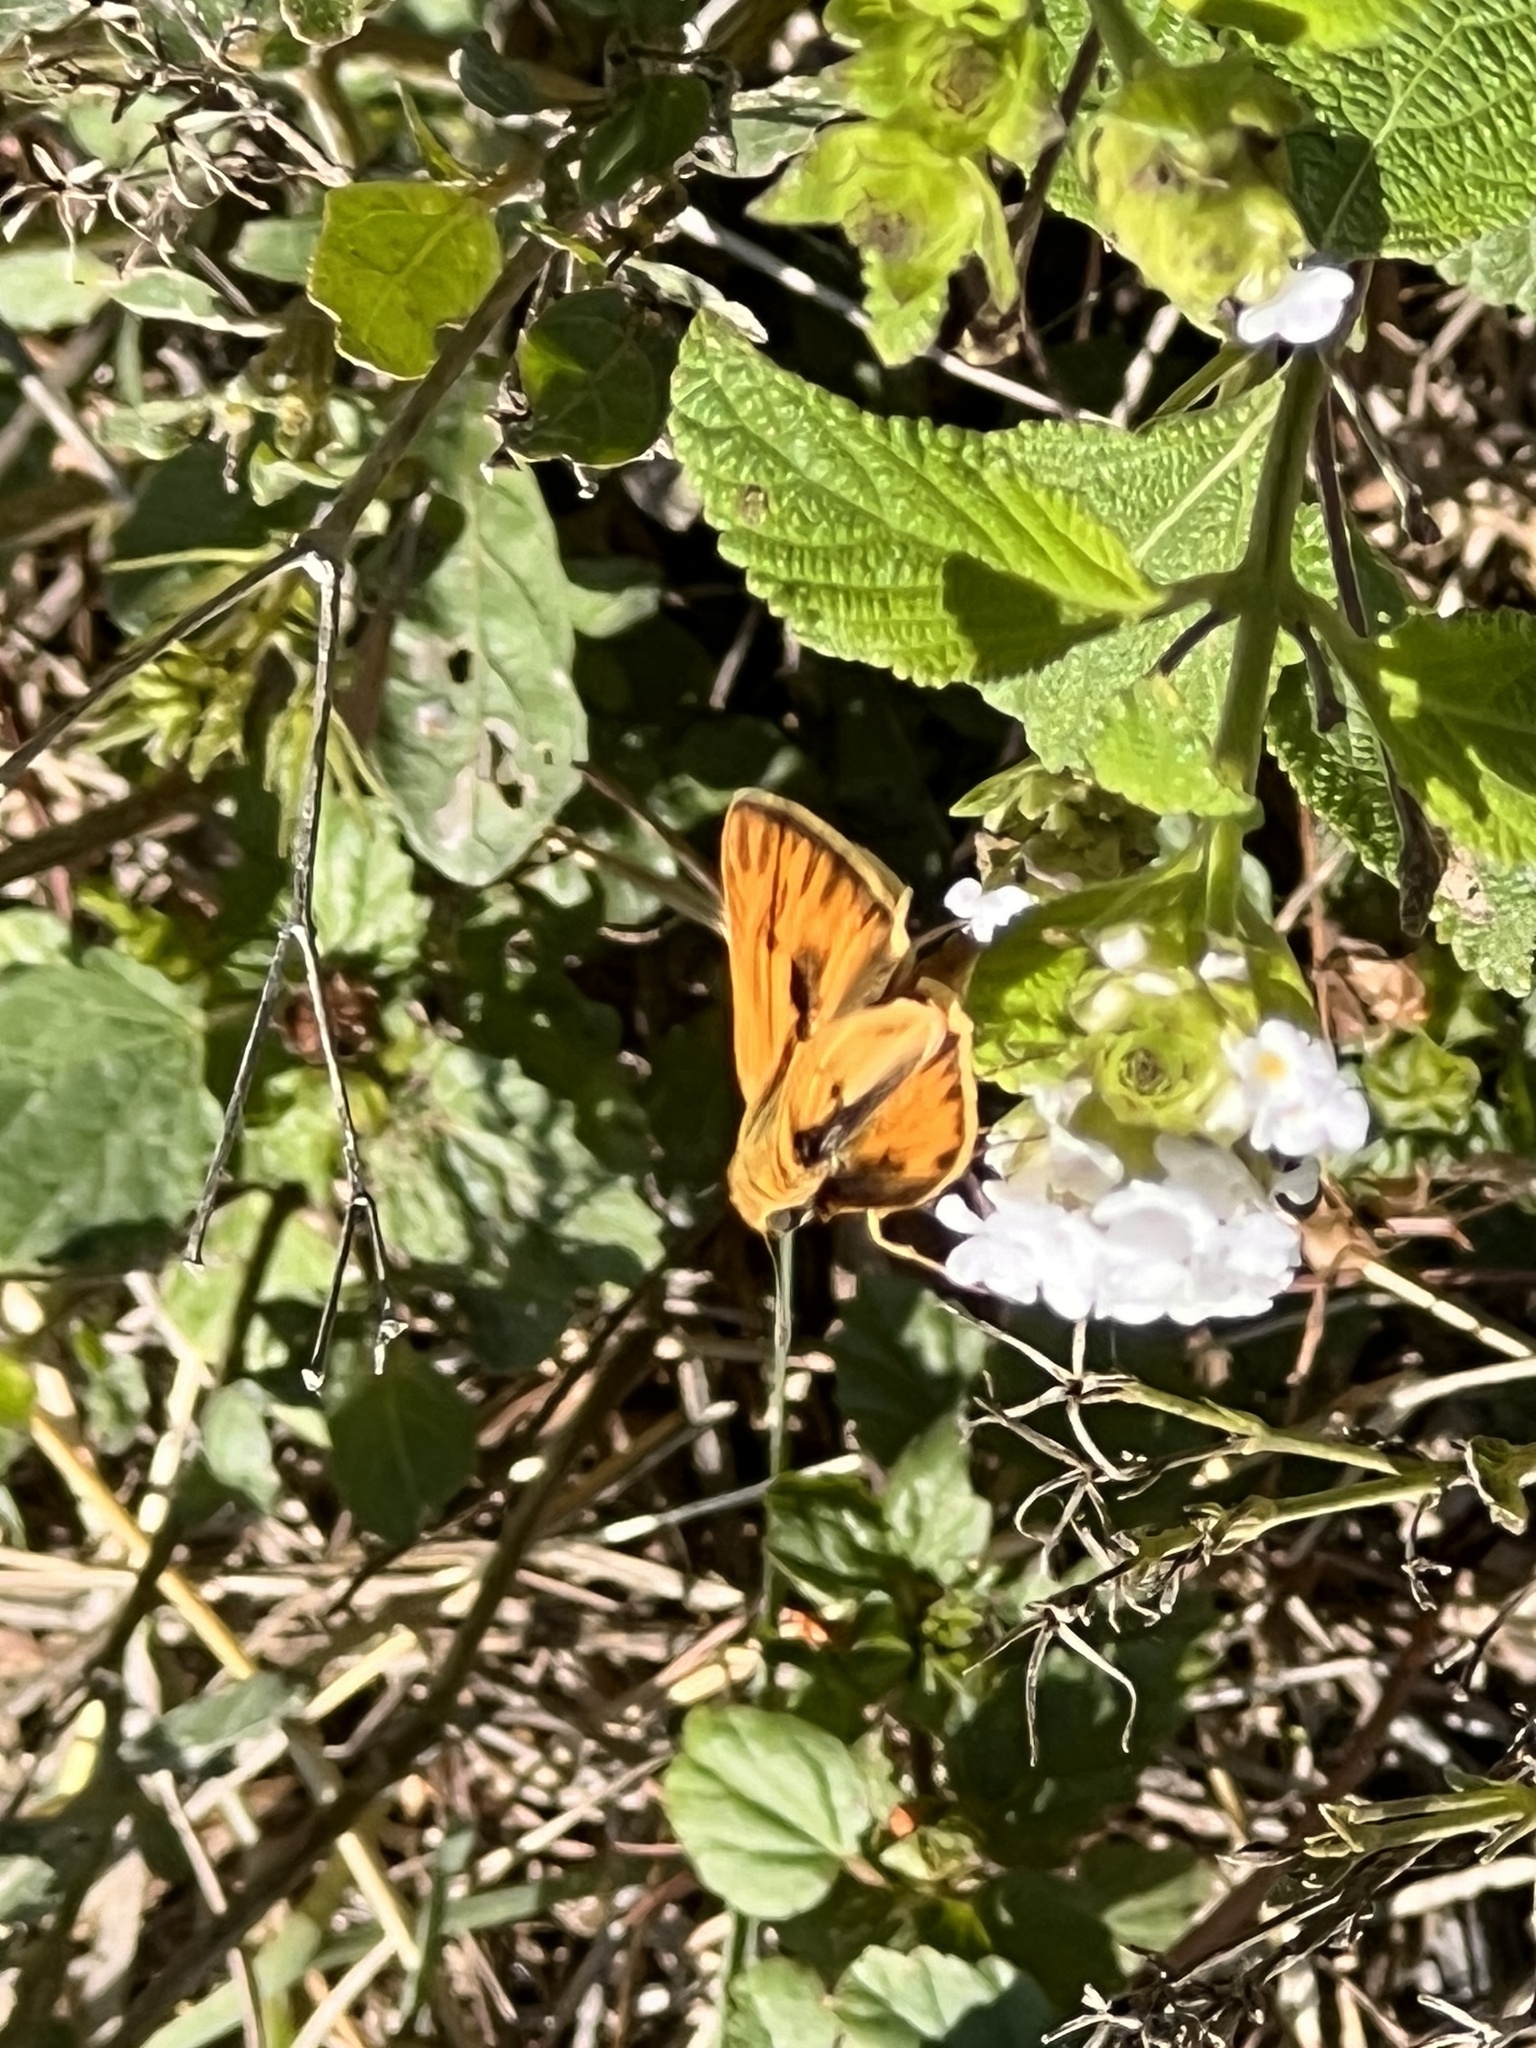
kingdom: Animalia
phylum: Arthropoda
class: Insecta
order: Lepidoptera
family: Hesperiidae
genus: Hylephila
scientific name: Hylephila phyleus
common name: Fiery skipper
